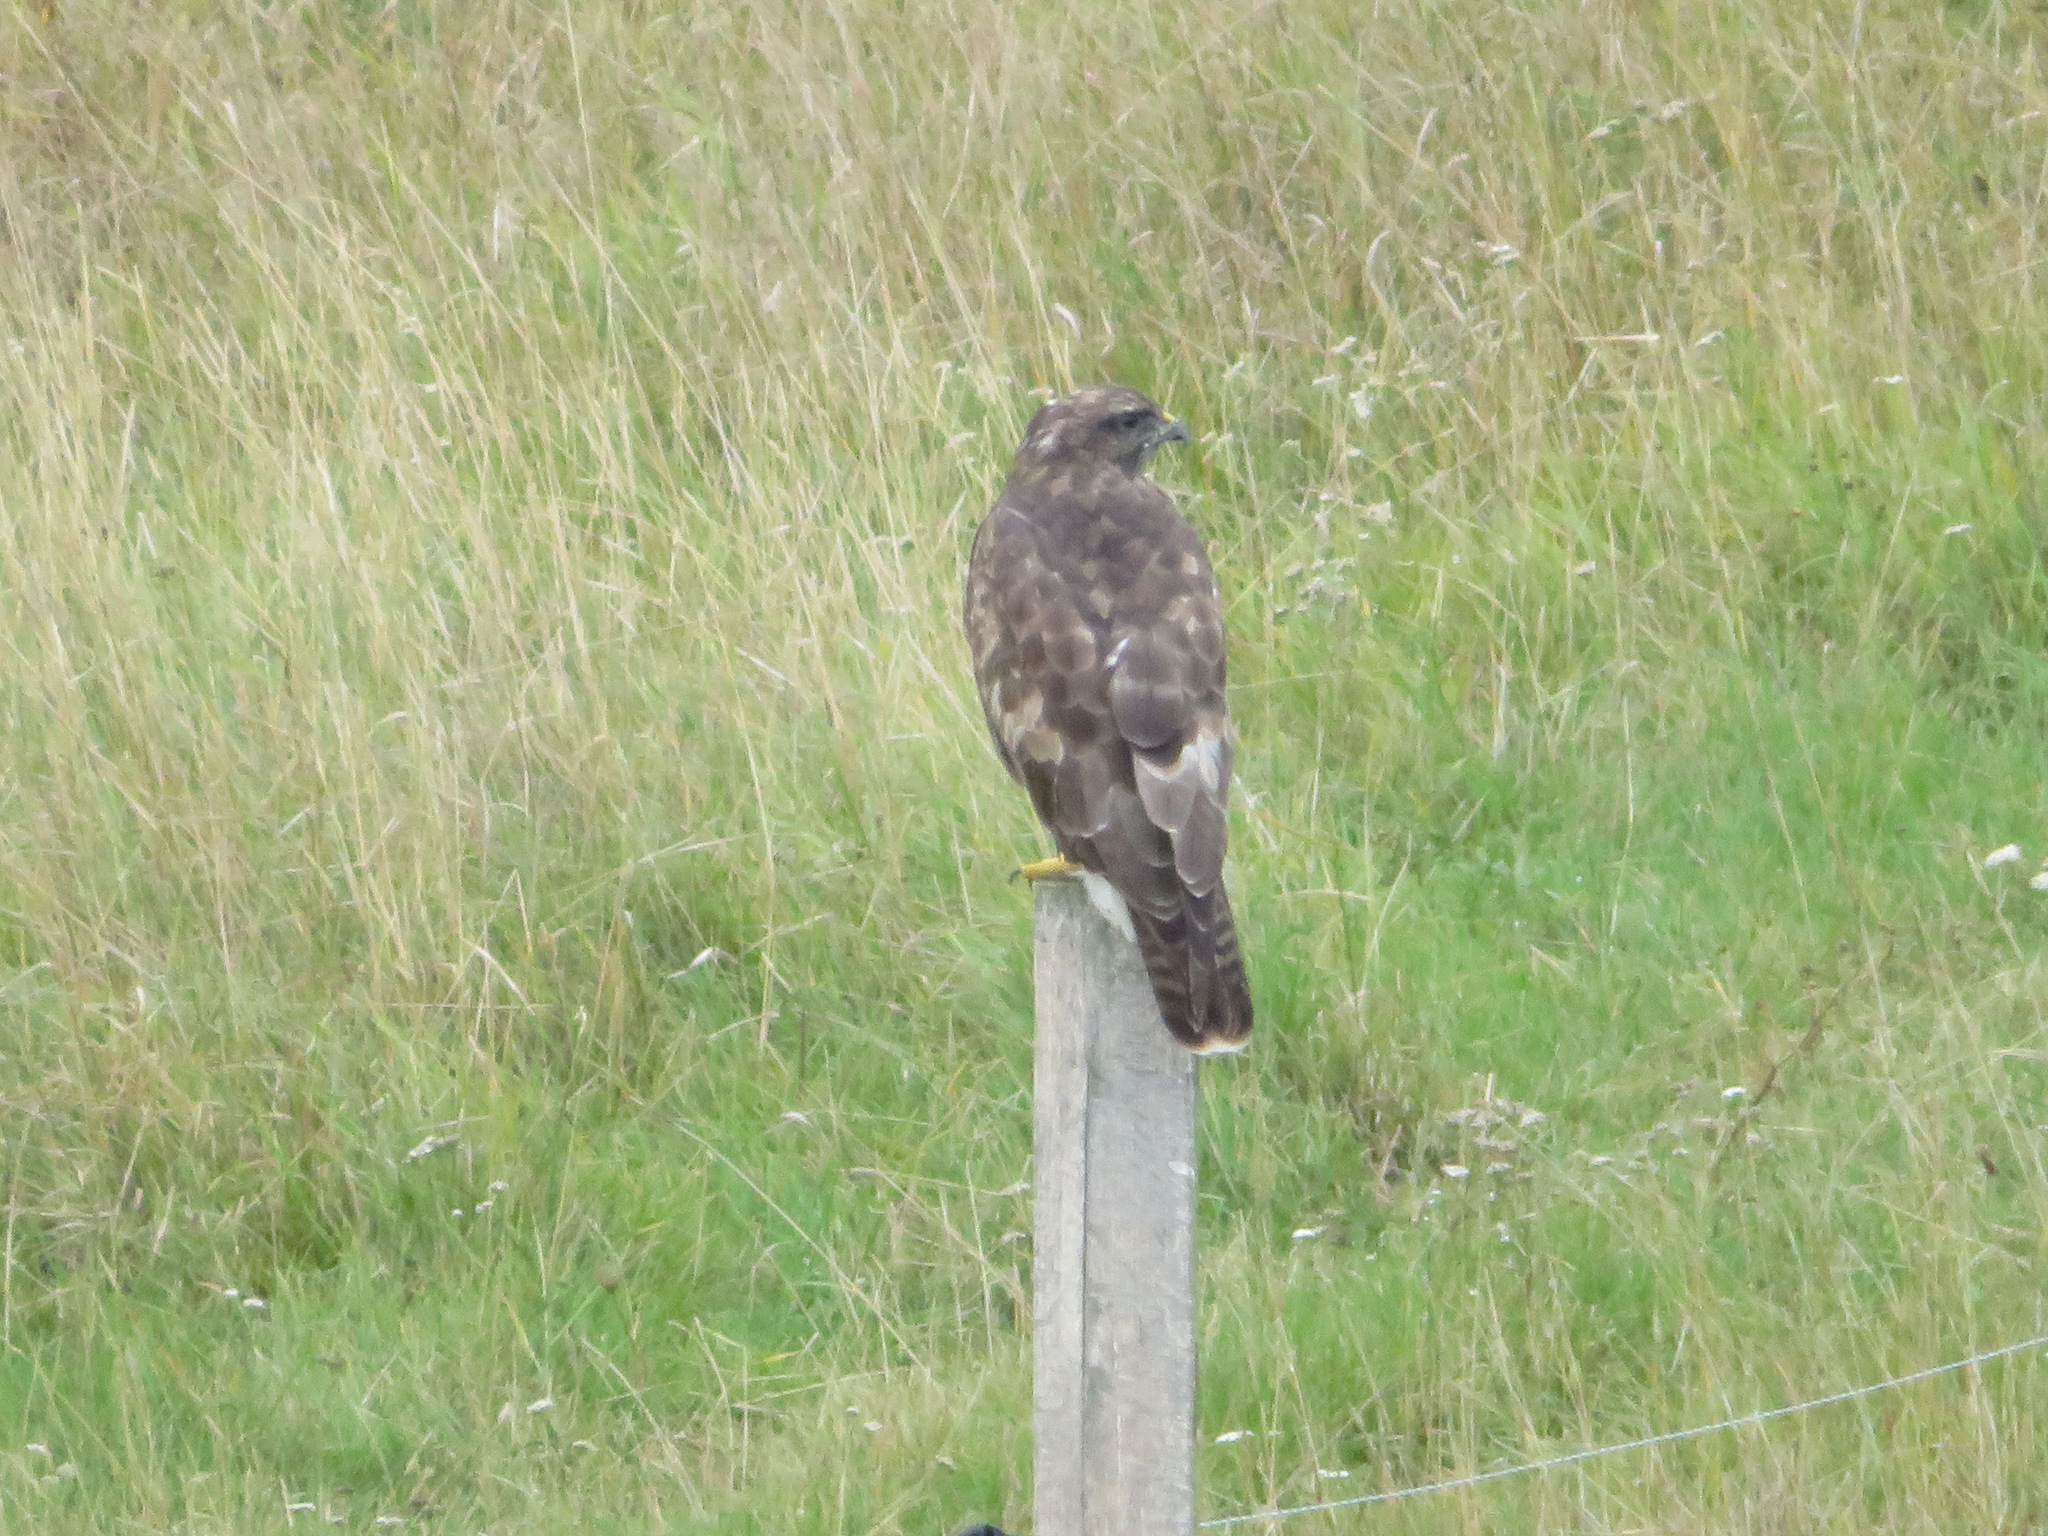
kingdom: Animalia
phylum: Chordata
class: Aves
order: Accipitriformes
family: Accipitridae
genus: Buteo
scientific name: Buteo buteo
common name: Common buzzard
